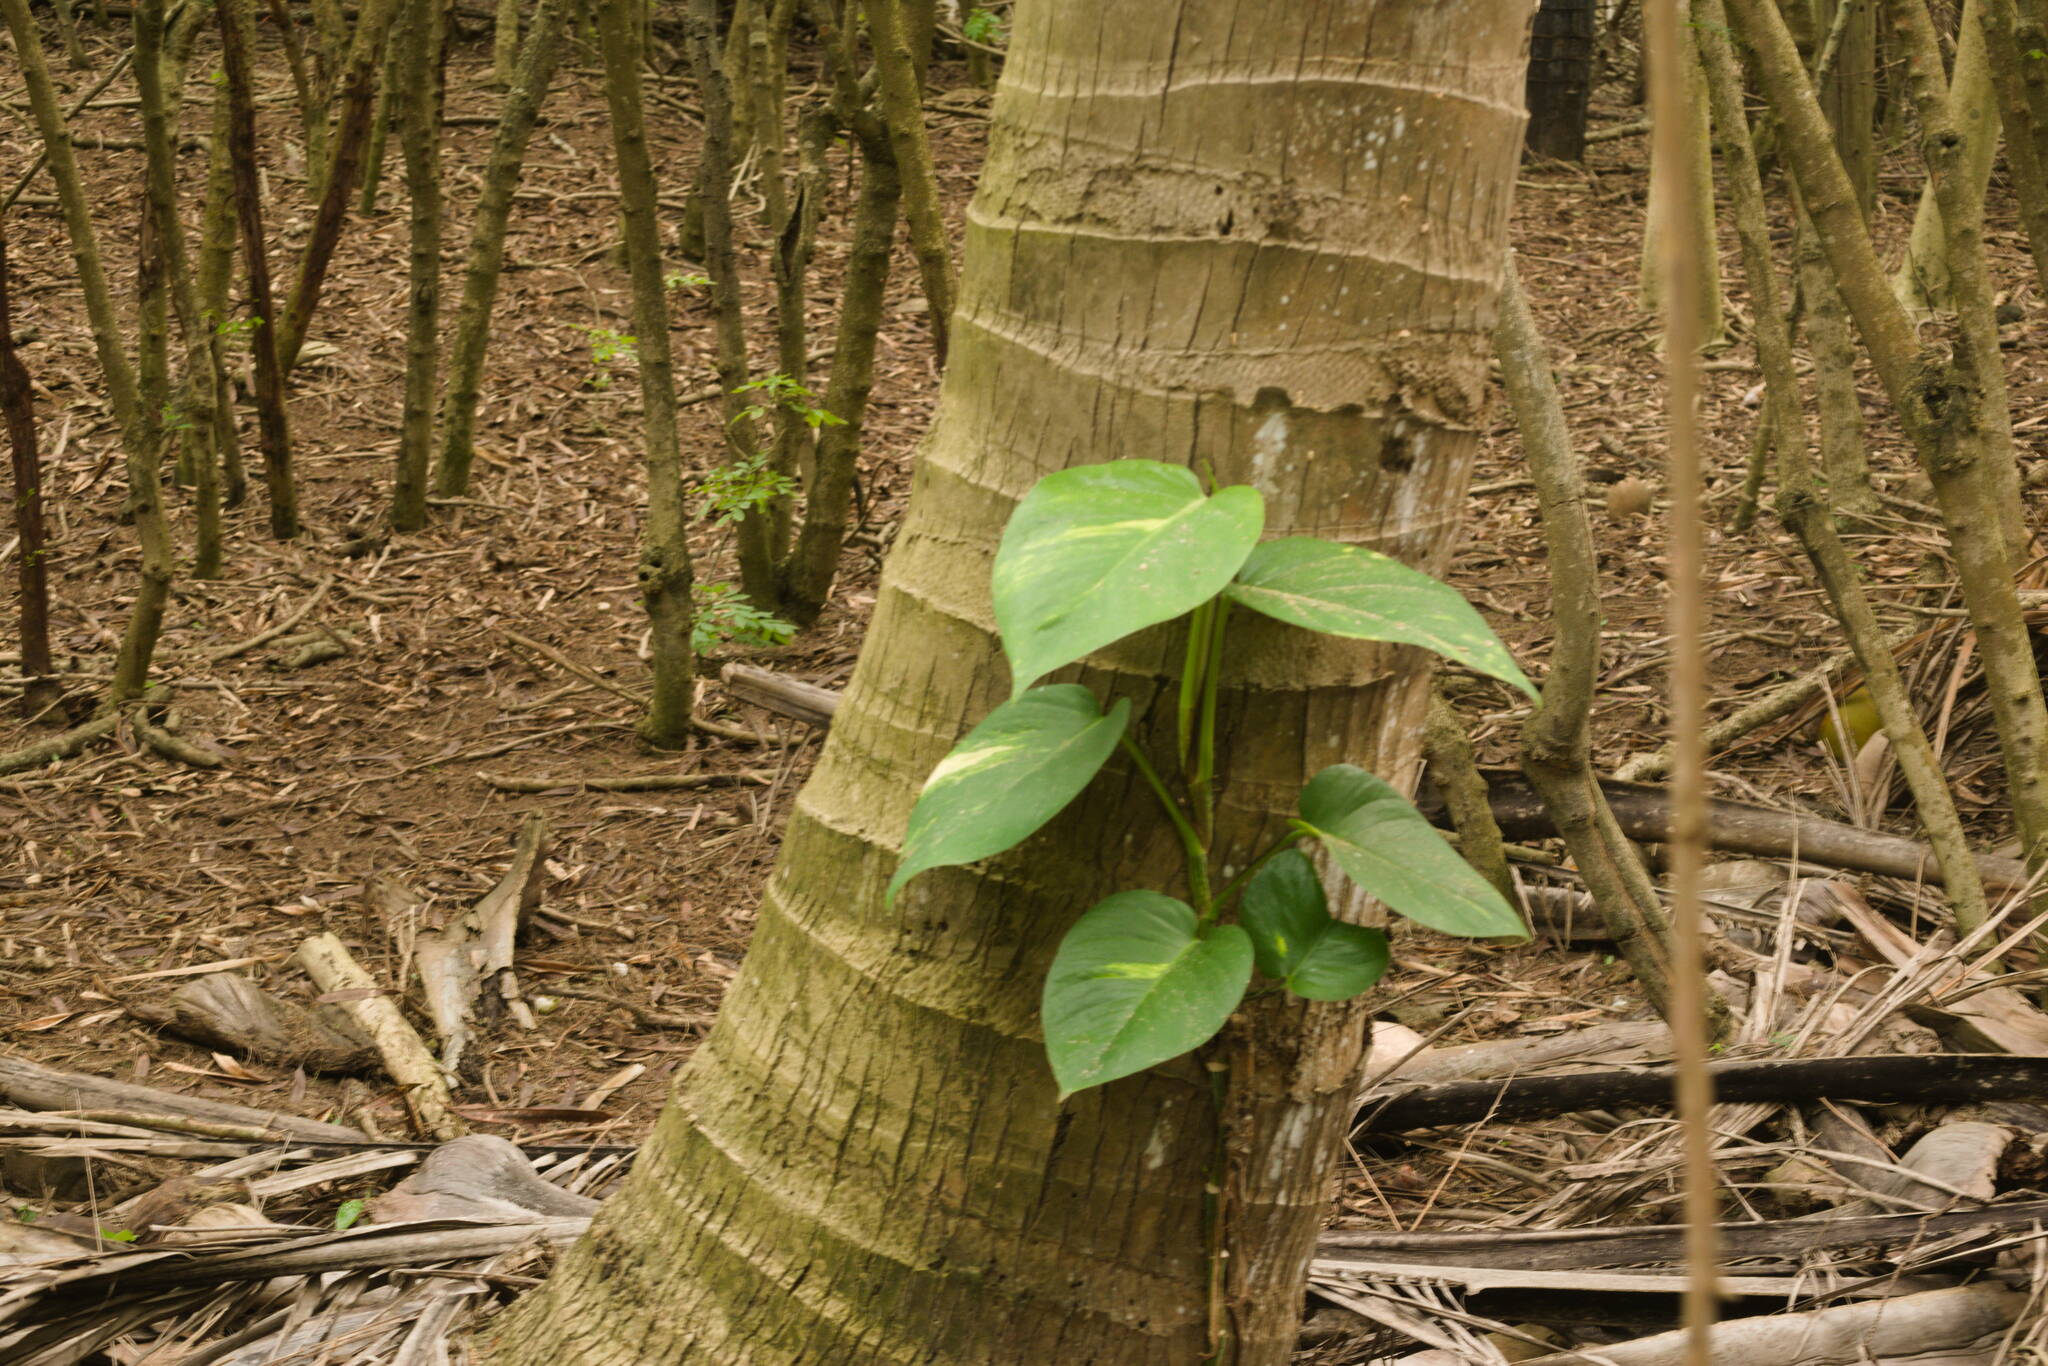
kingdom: Plantae
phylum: Tracheophyta
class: Liliopsida
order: Alismatales
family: Araceae
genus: Epipremnum
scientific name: Epipremnum aureum
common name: Golden hunter's-robe
